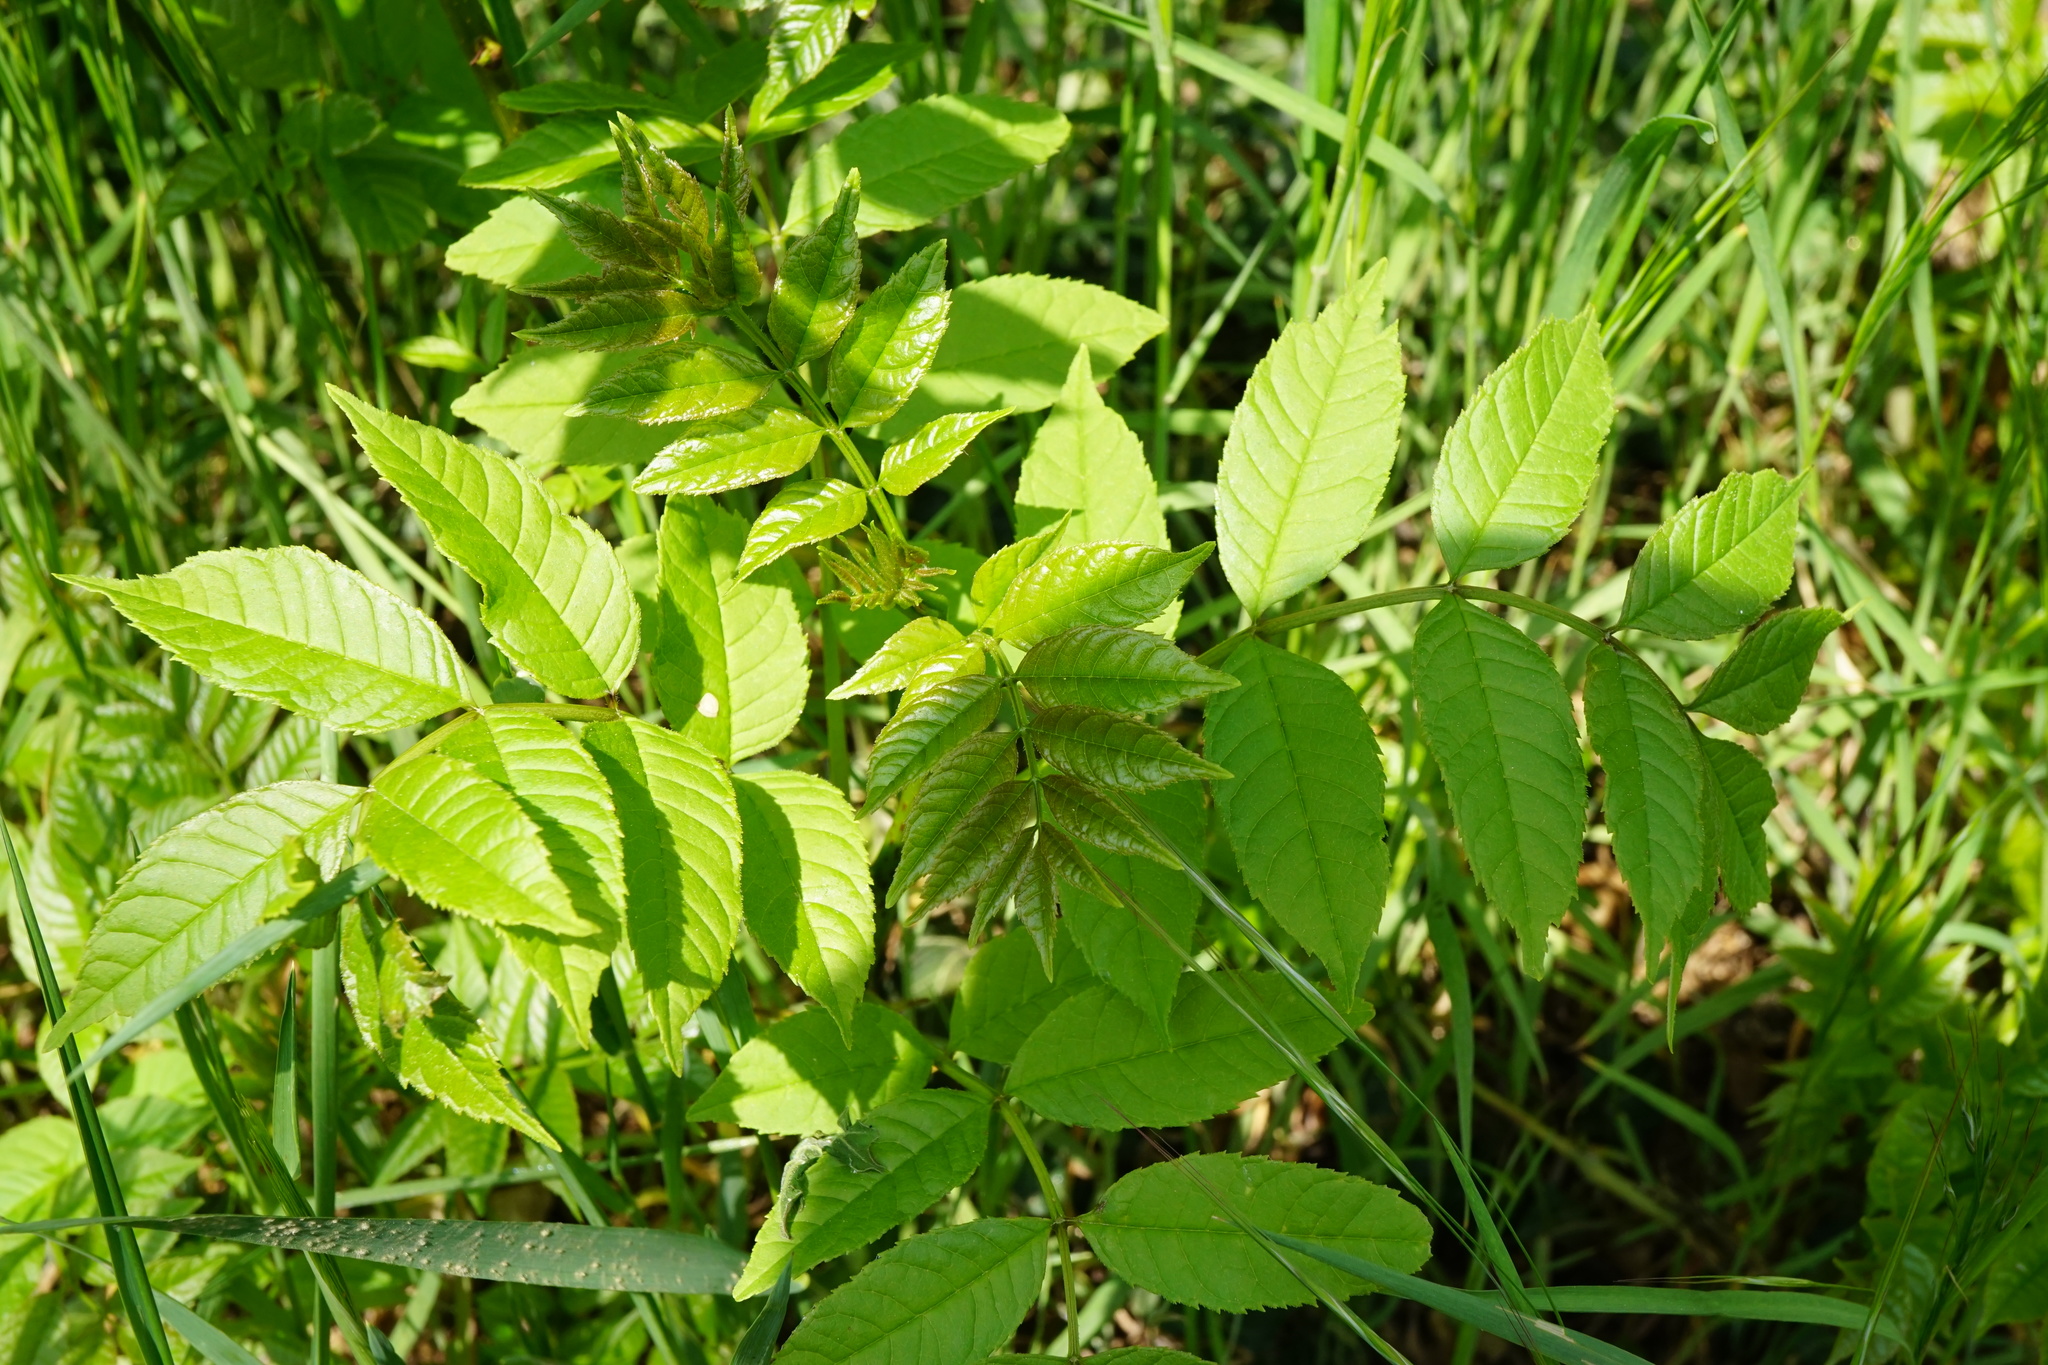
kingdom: Plantae
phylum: Tracheophyta
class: Magnoliopsida
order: Lamiales
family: Oleaceae
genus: Fraxinus
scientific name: Fraxinus excelsior
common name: European ash
